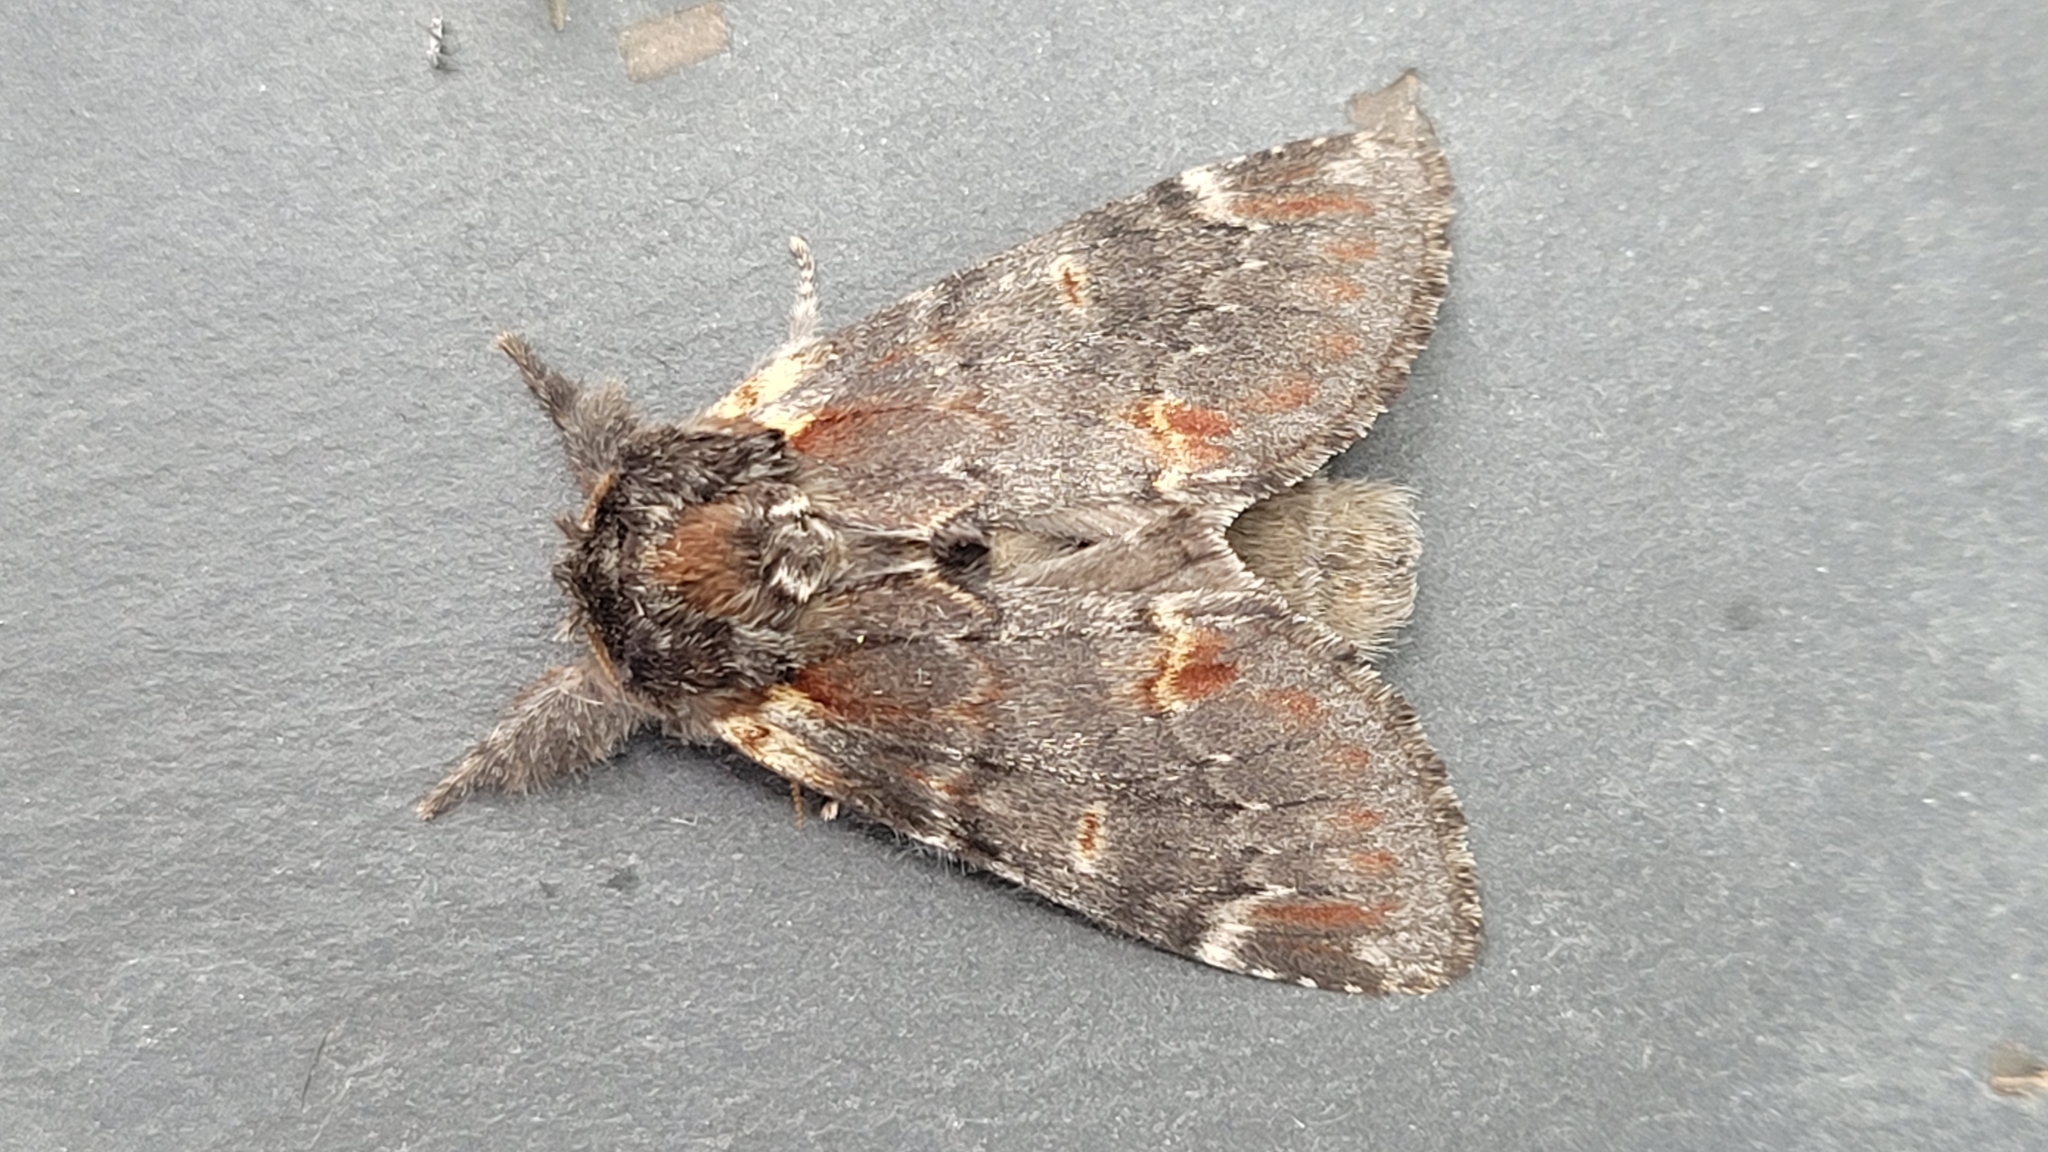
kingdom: Animalia
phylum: Arthropoda
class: Insecta
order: Lepidoptera
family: Notodontidae
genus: Notodonta
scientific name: Notodonta dromedarius
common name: Iron prominent
